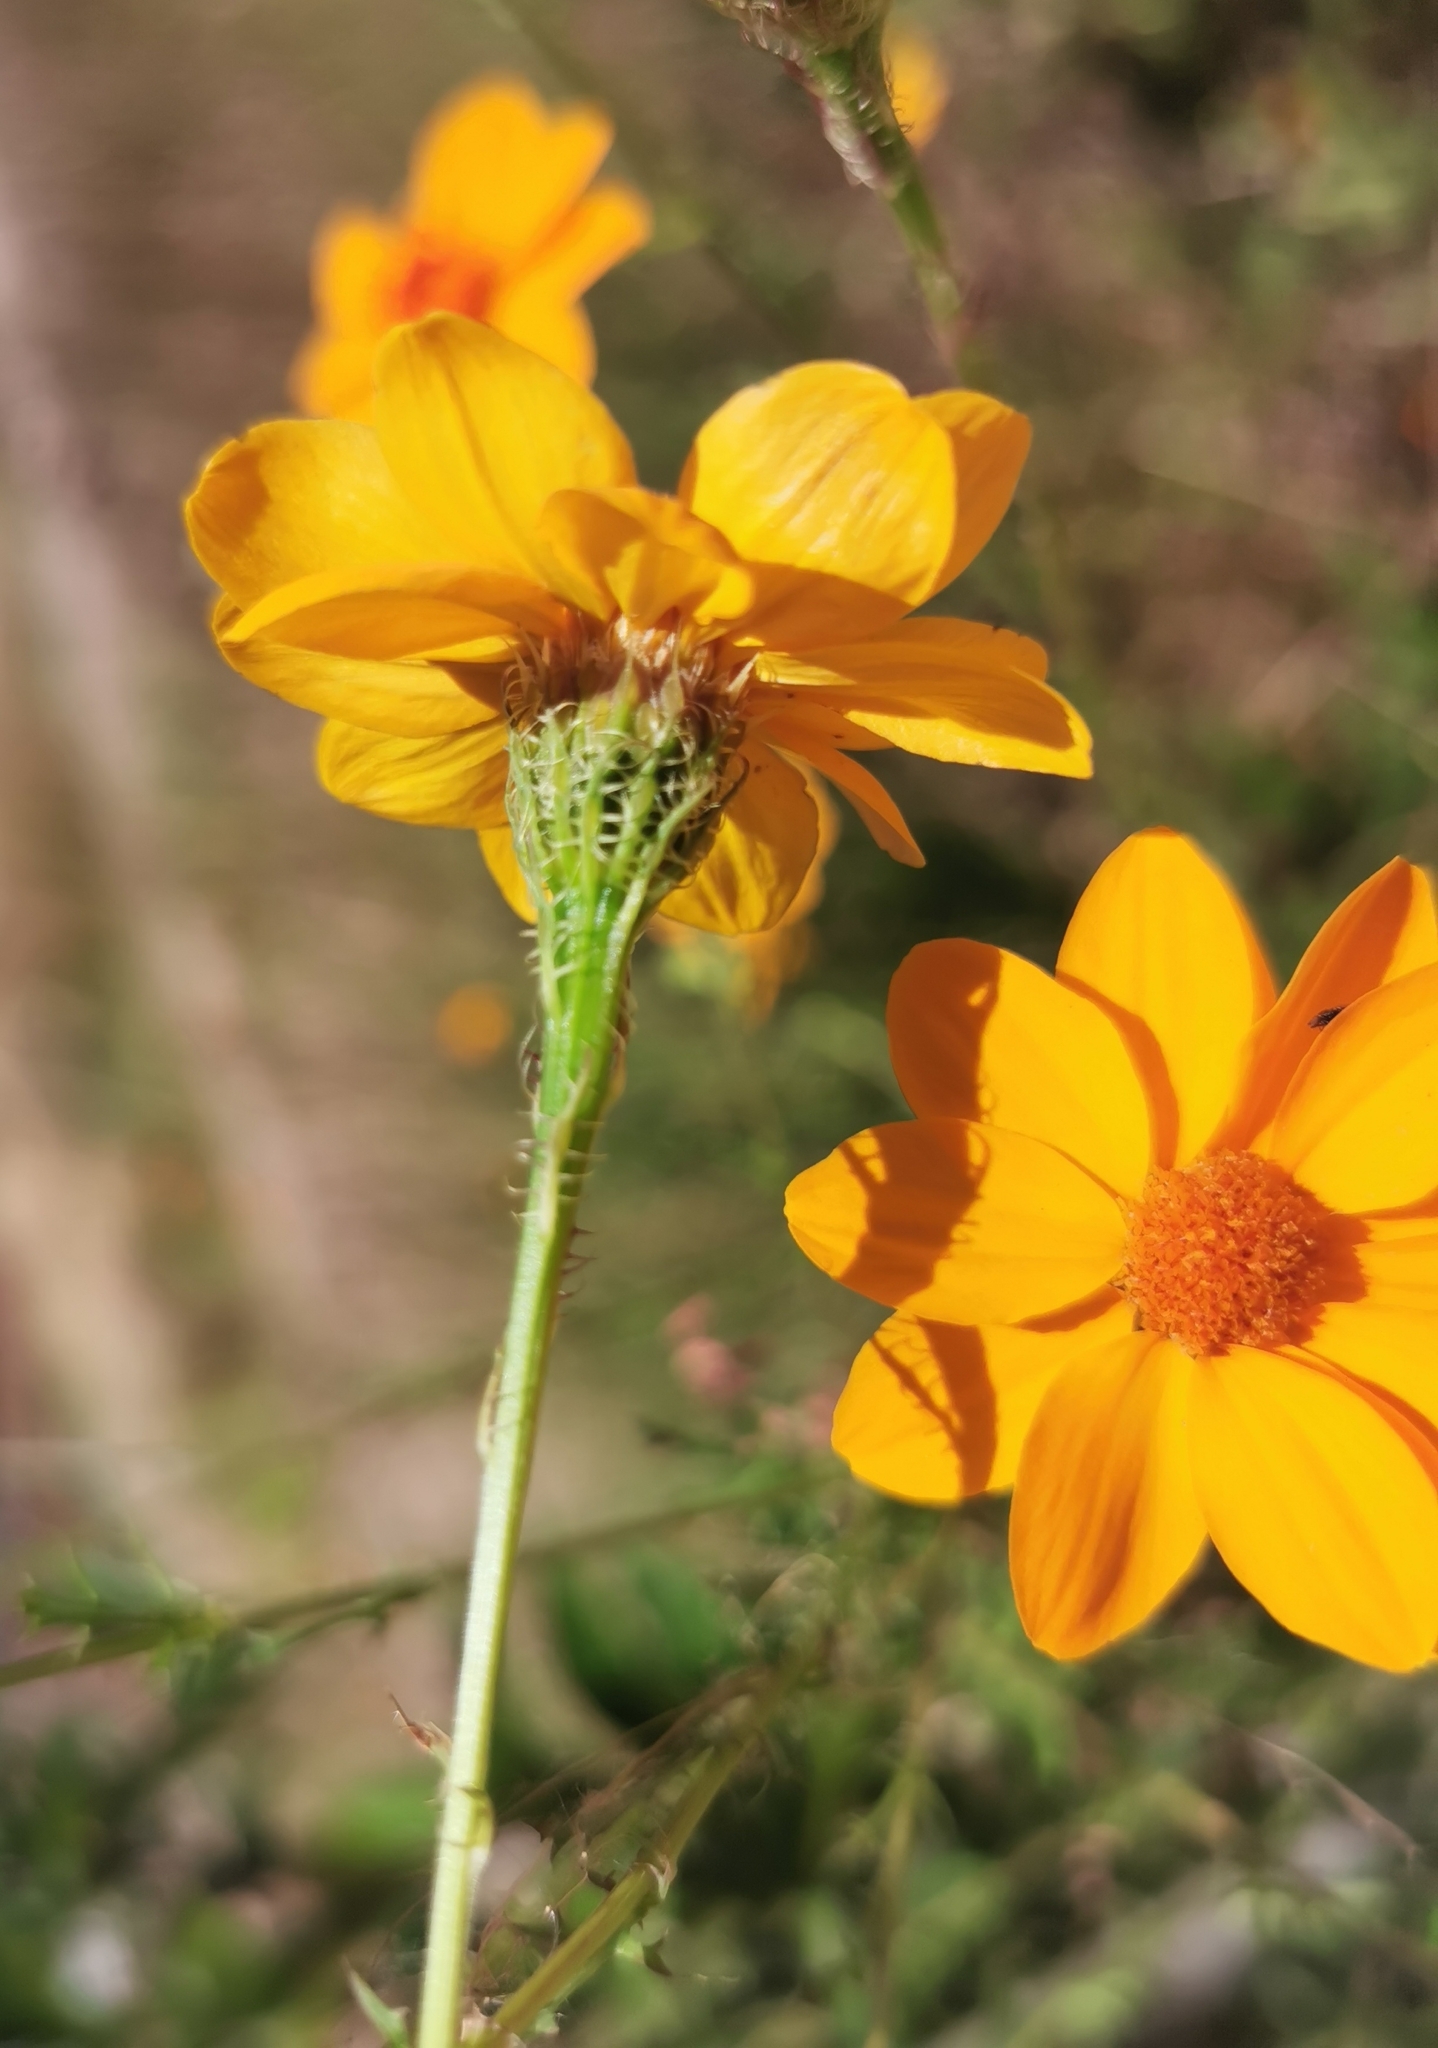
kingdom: Plantae
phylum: Tracheophyta
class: Magnoliopsida
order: Asterales
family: Asteraceae
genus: Adenophyllum
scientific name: Adenophyllum cancellatum
